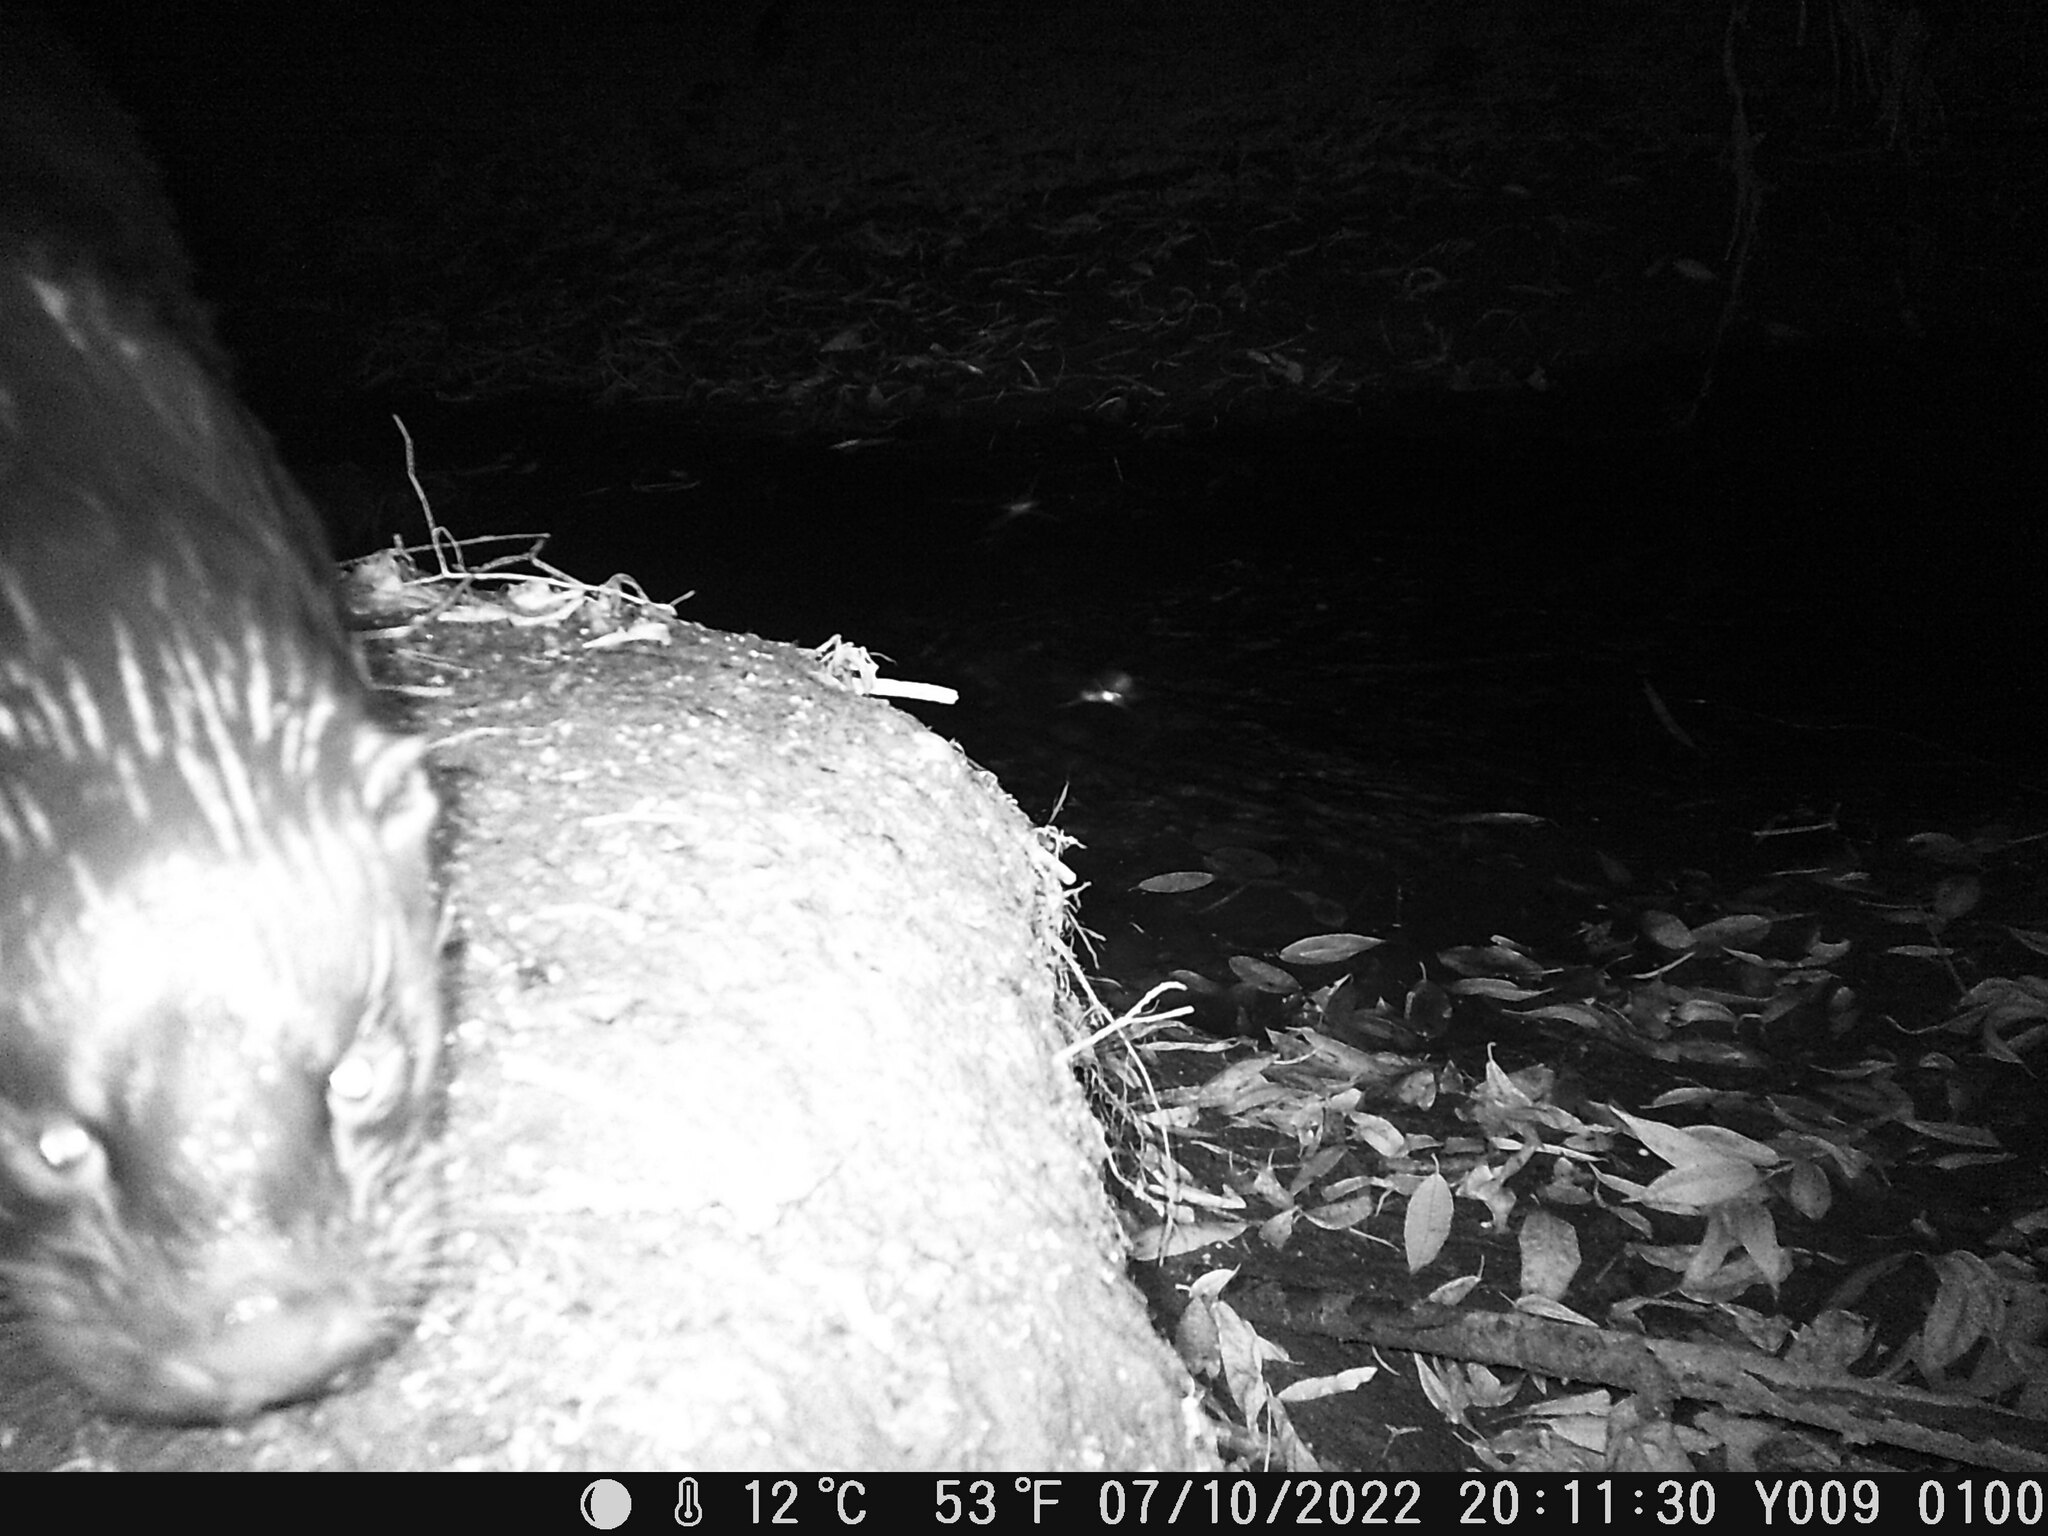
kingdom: Animalia
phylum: Chordata
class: Mammalia
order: Carnivora
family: Mustelidae
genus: Lutra
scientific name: Lutra lutra
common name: European otter
